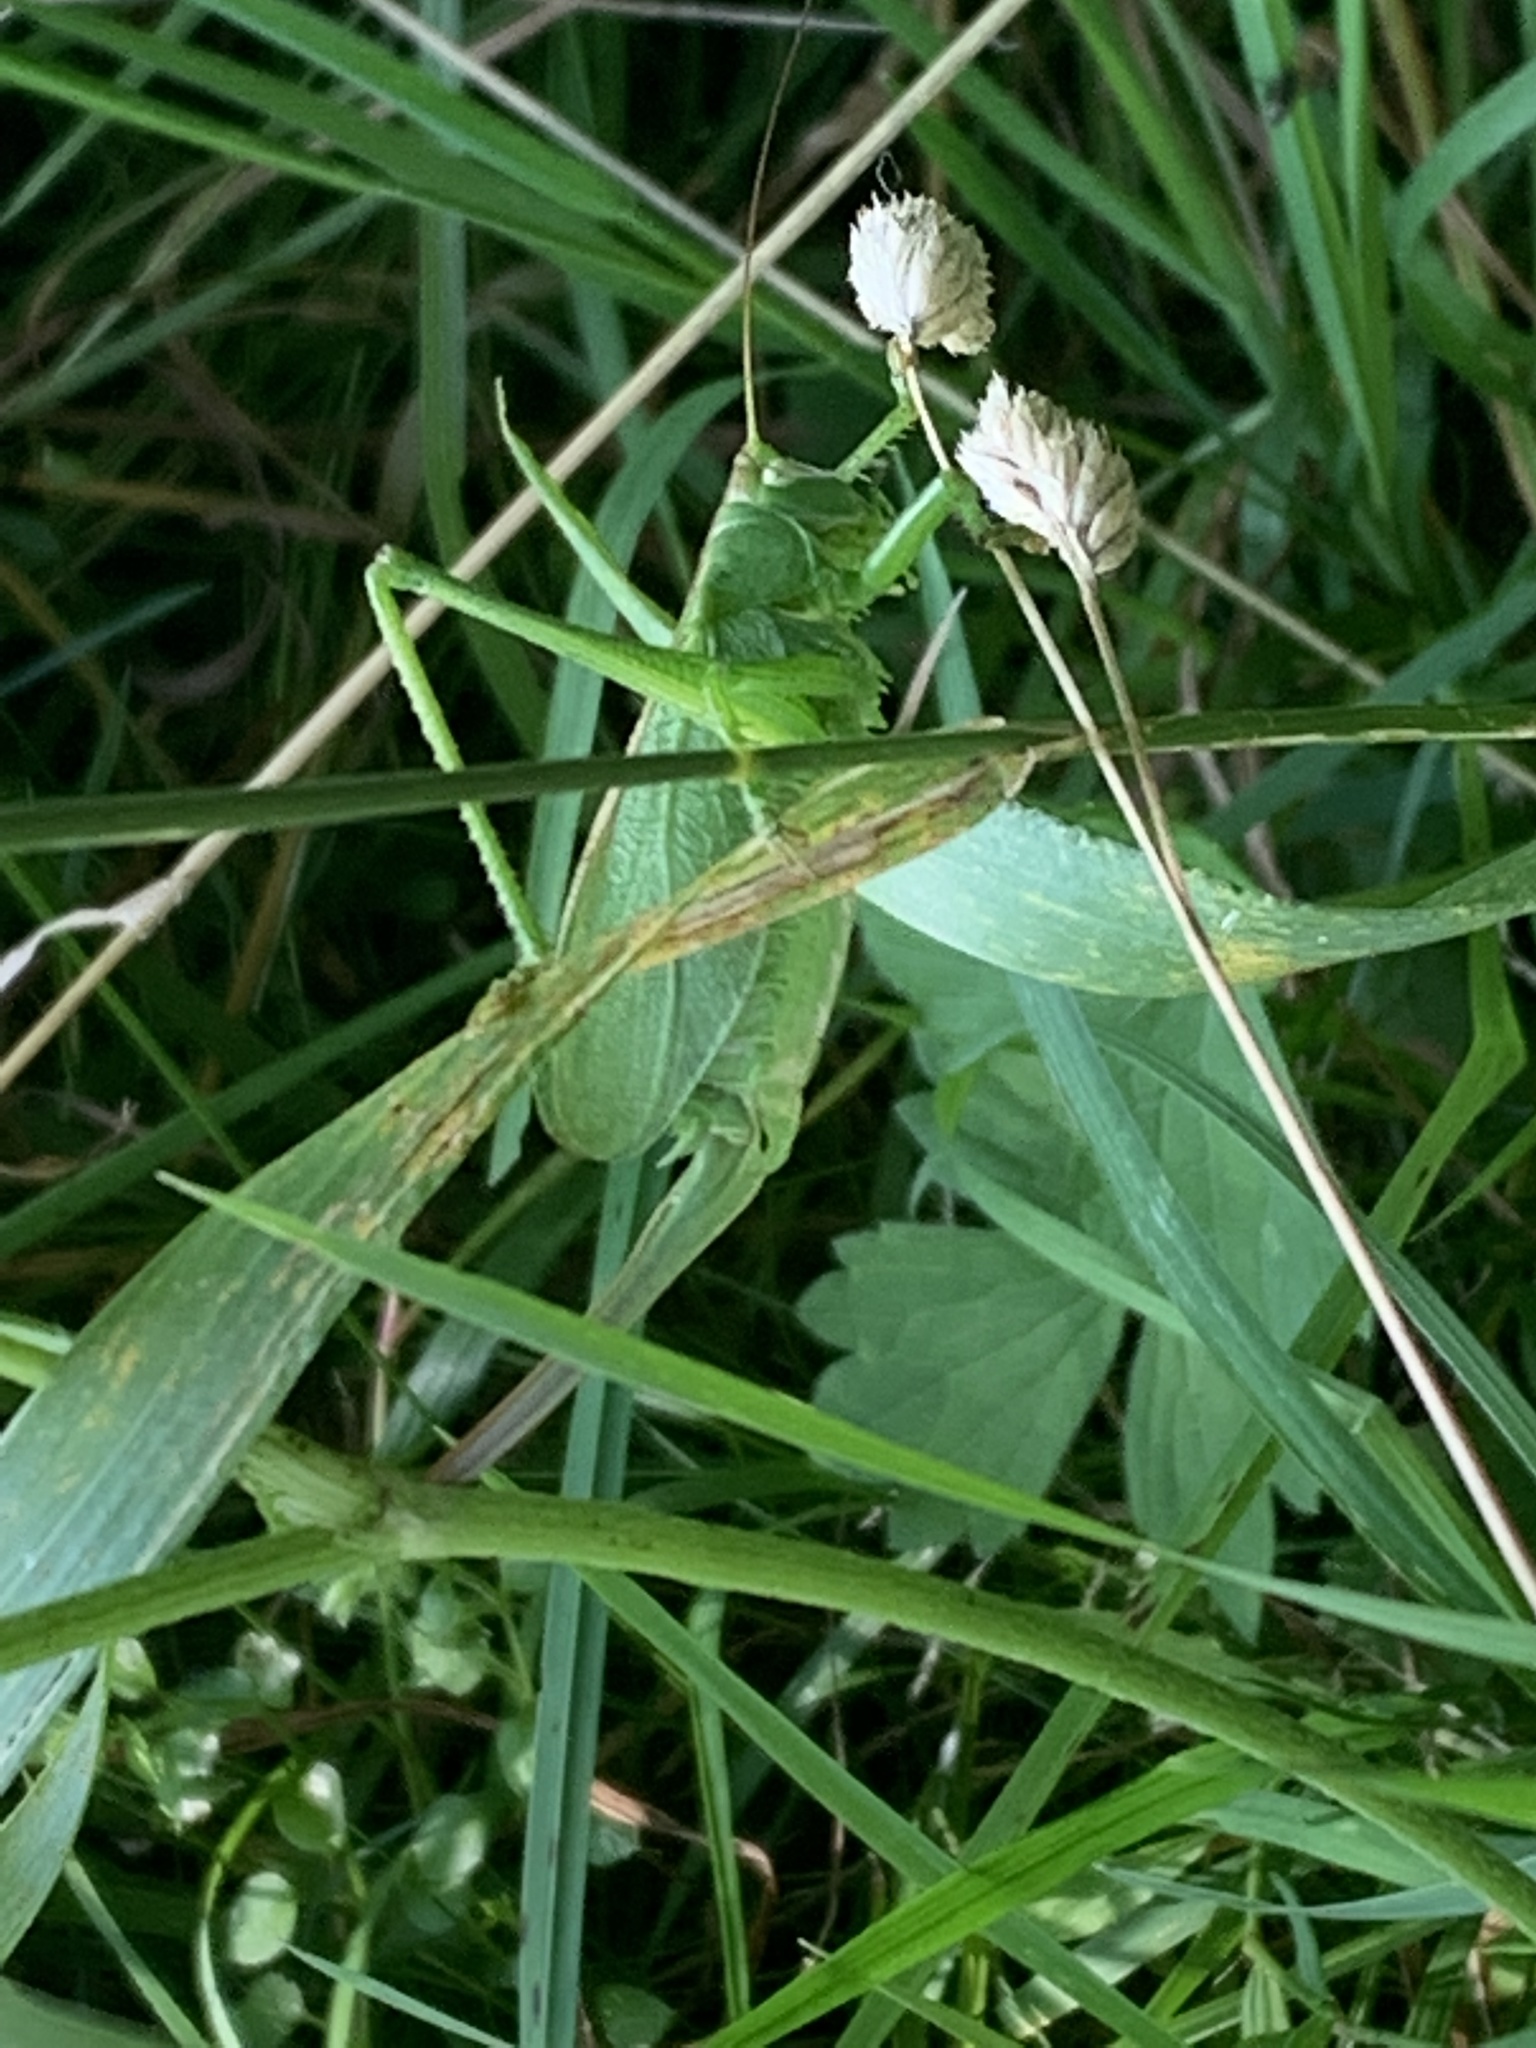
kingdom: Animalia
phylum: Arthropoda
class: Insecta
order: Orthoptera
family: Tettigoniidae
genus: Tettigonia
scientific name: Tettigonia cantans
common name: Upland green bush-cricket
